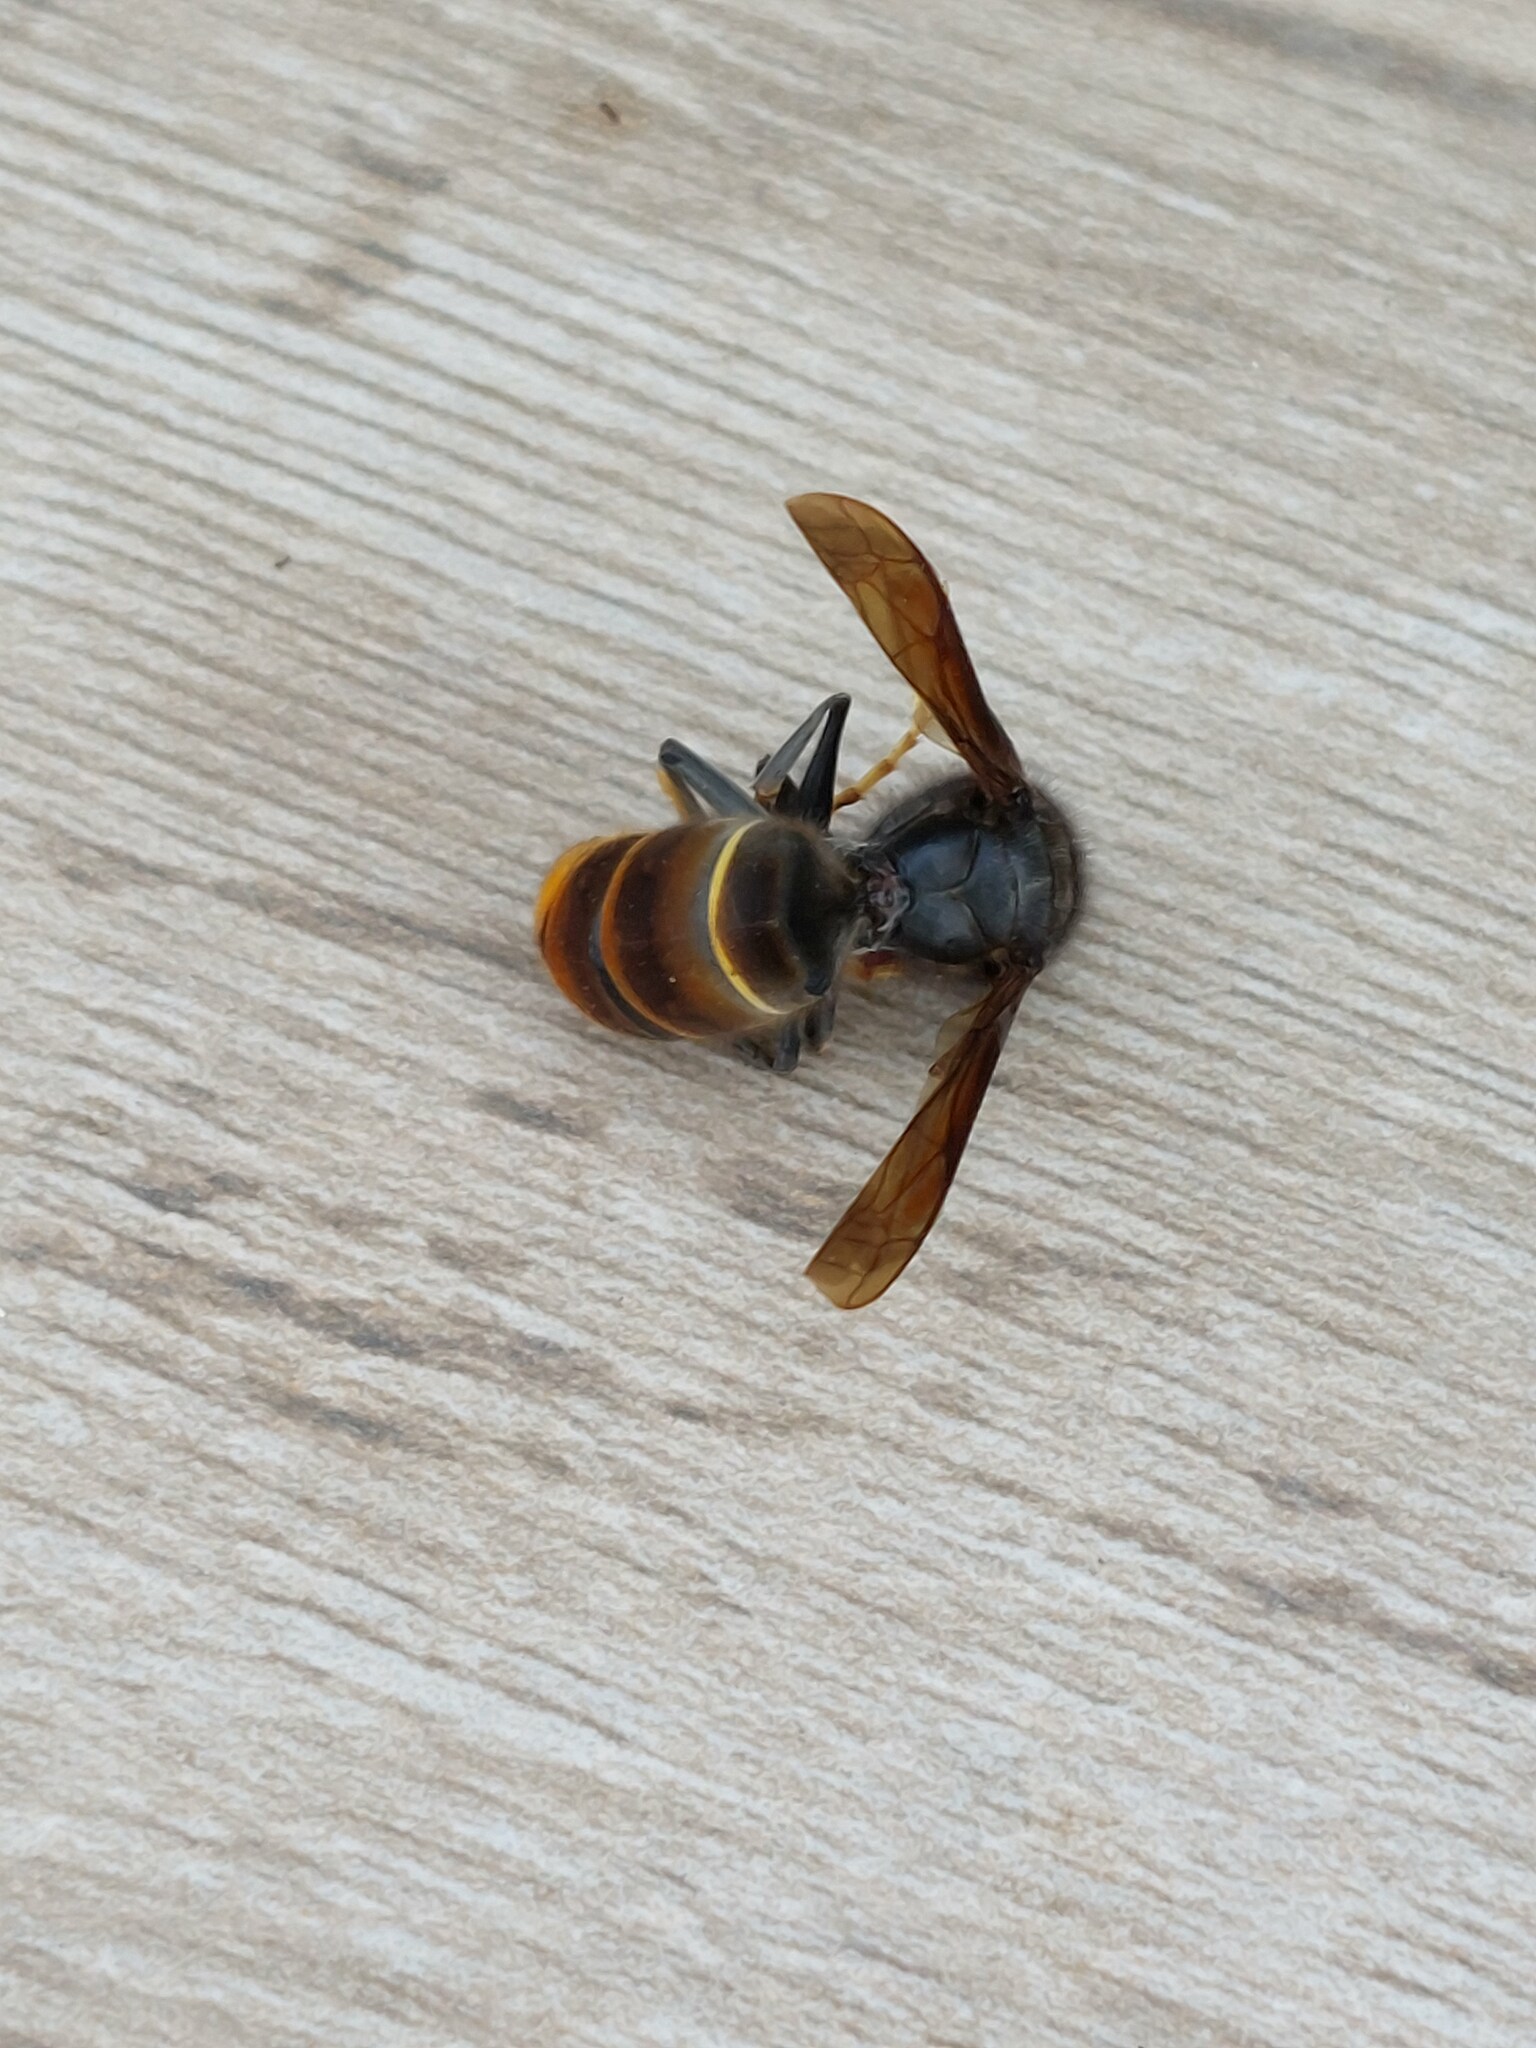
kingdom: Animalia
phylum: Arthropoda
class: Insecta
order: Hymenoptera
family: Vespidae
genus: Vespa
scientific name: Vespa velutina
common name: Asian hornet
